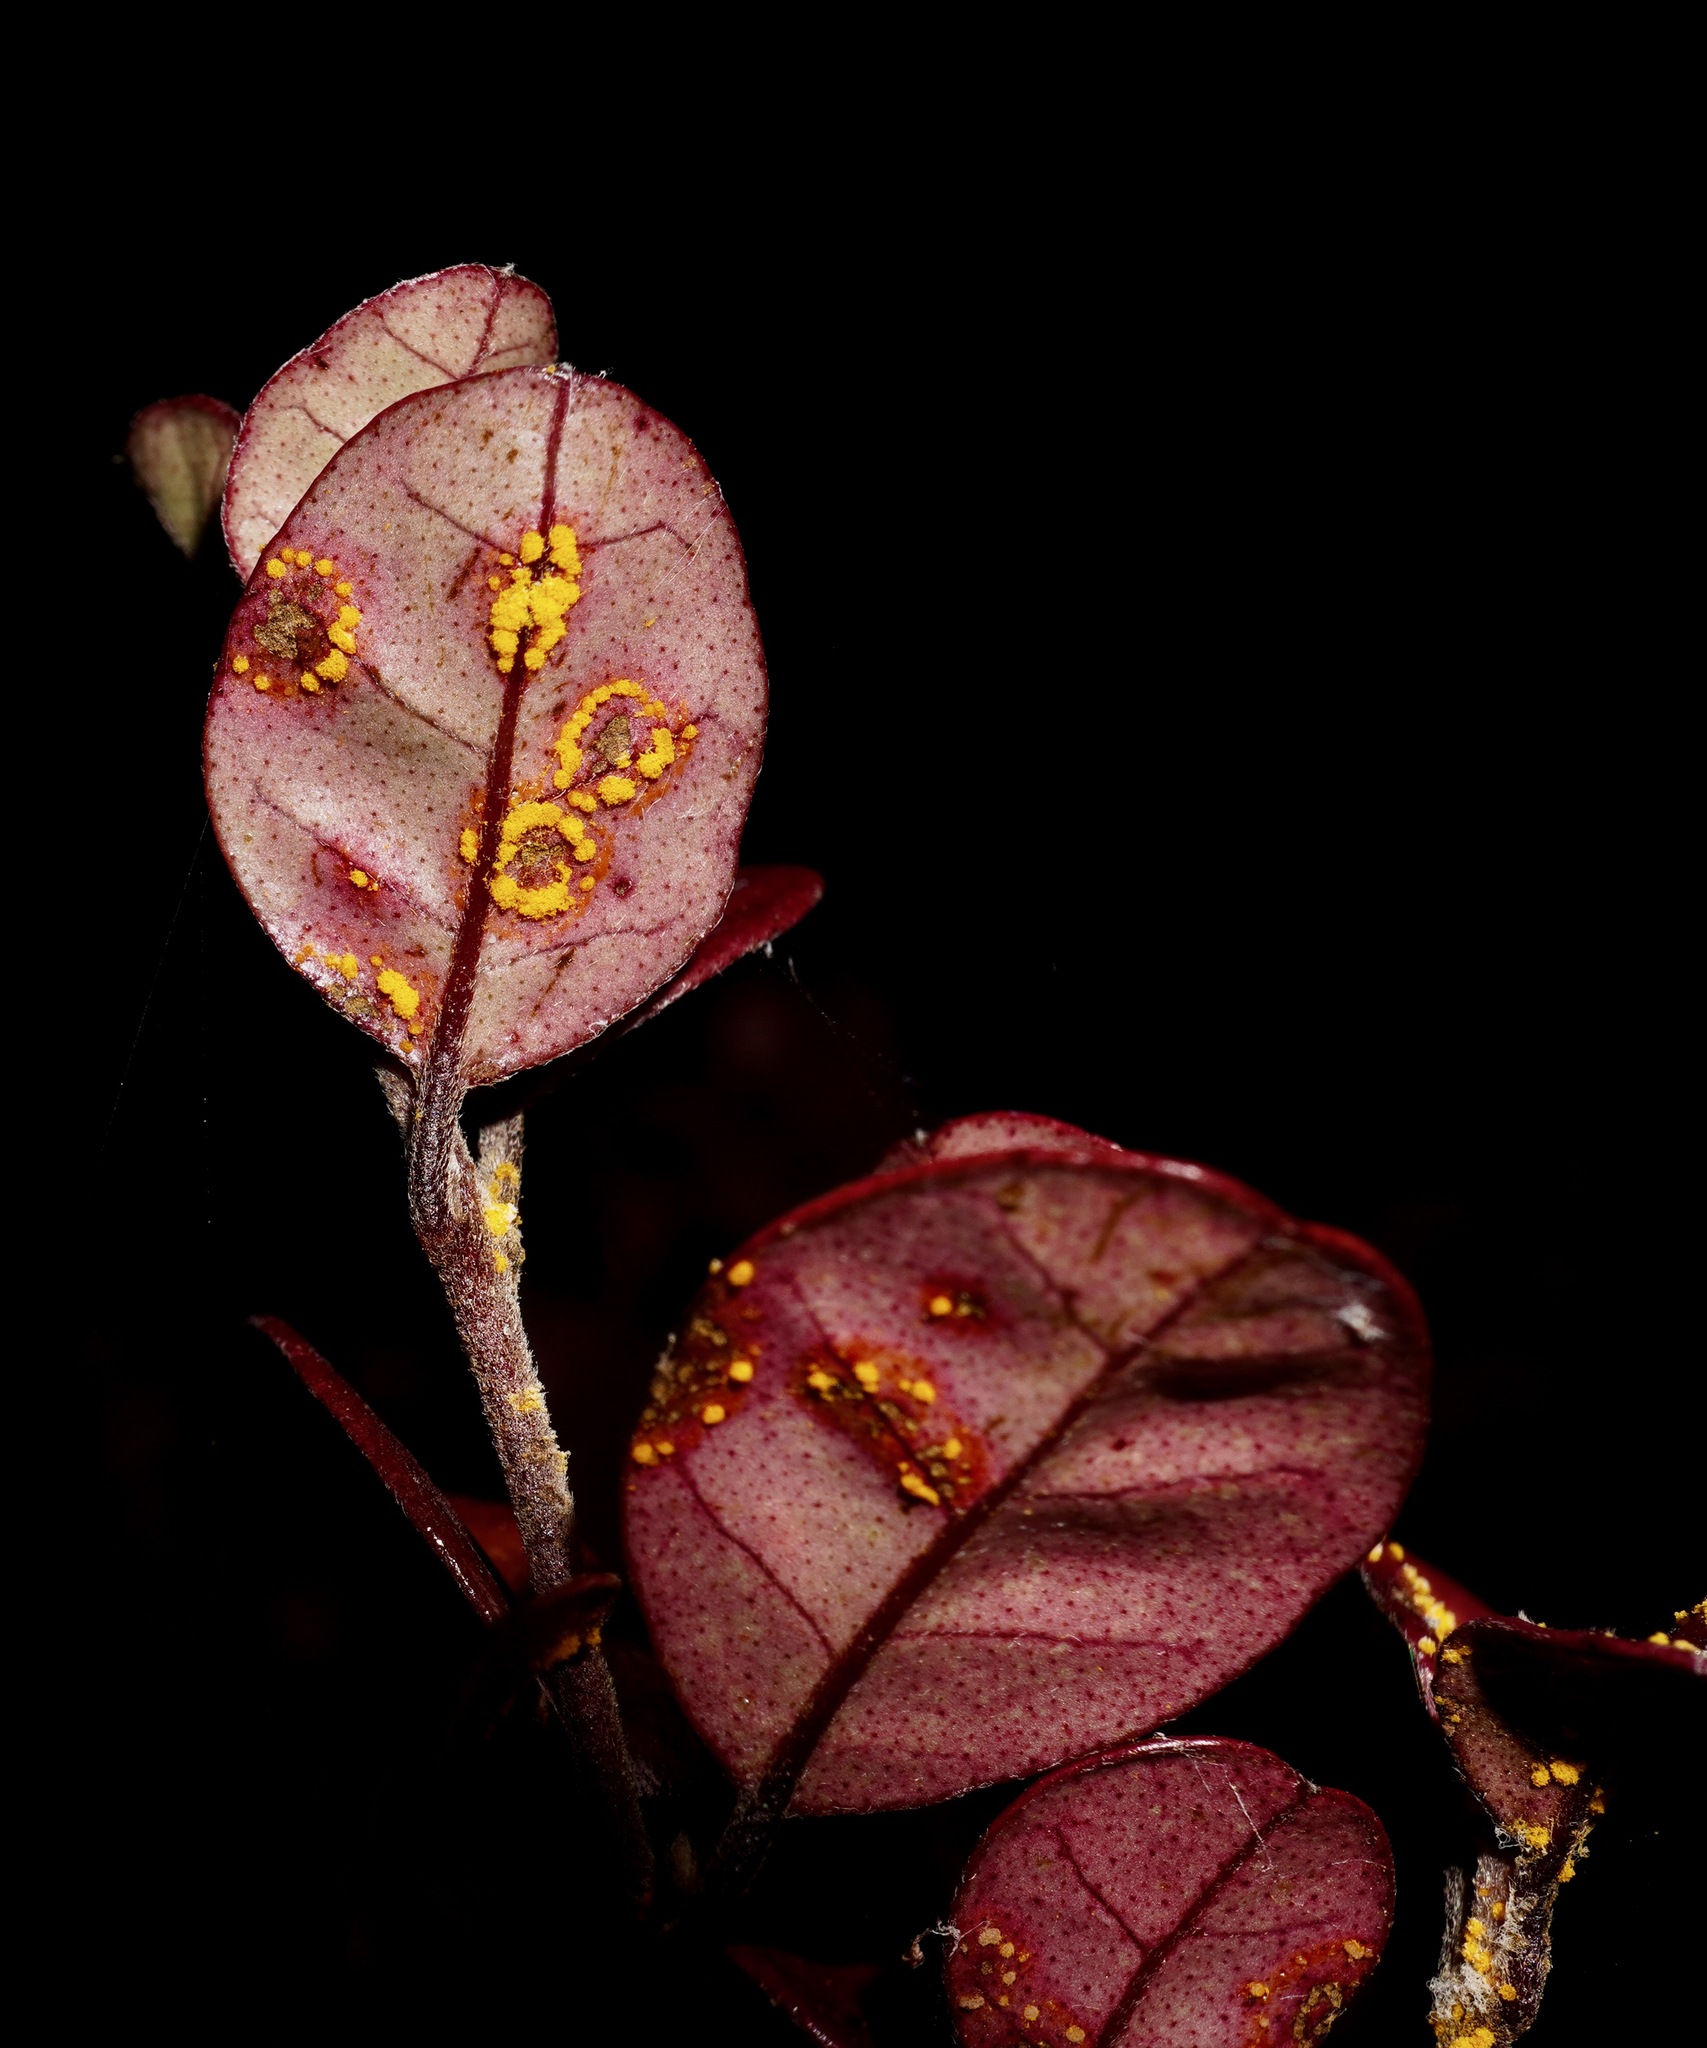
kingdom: Fungi
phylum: Basidiomycota
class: Pucciniomycetes
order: Pucciniales
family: Sphaerophragmiaceae
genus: Austropuccinia
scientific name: Austropuccinia psidii
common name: Myrtle rust
